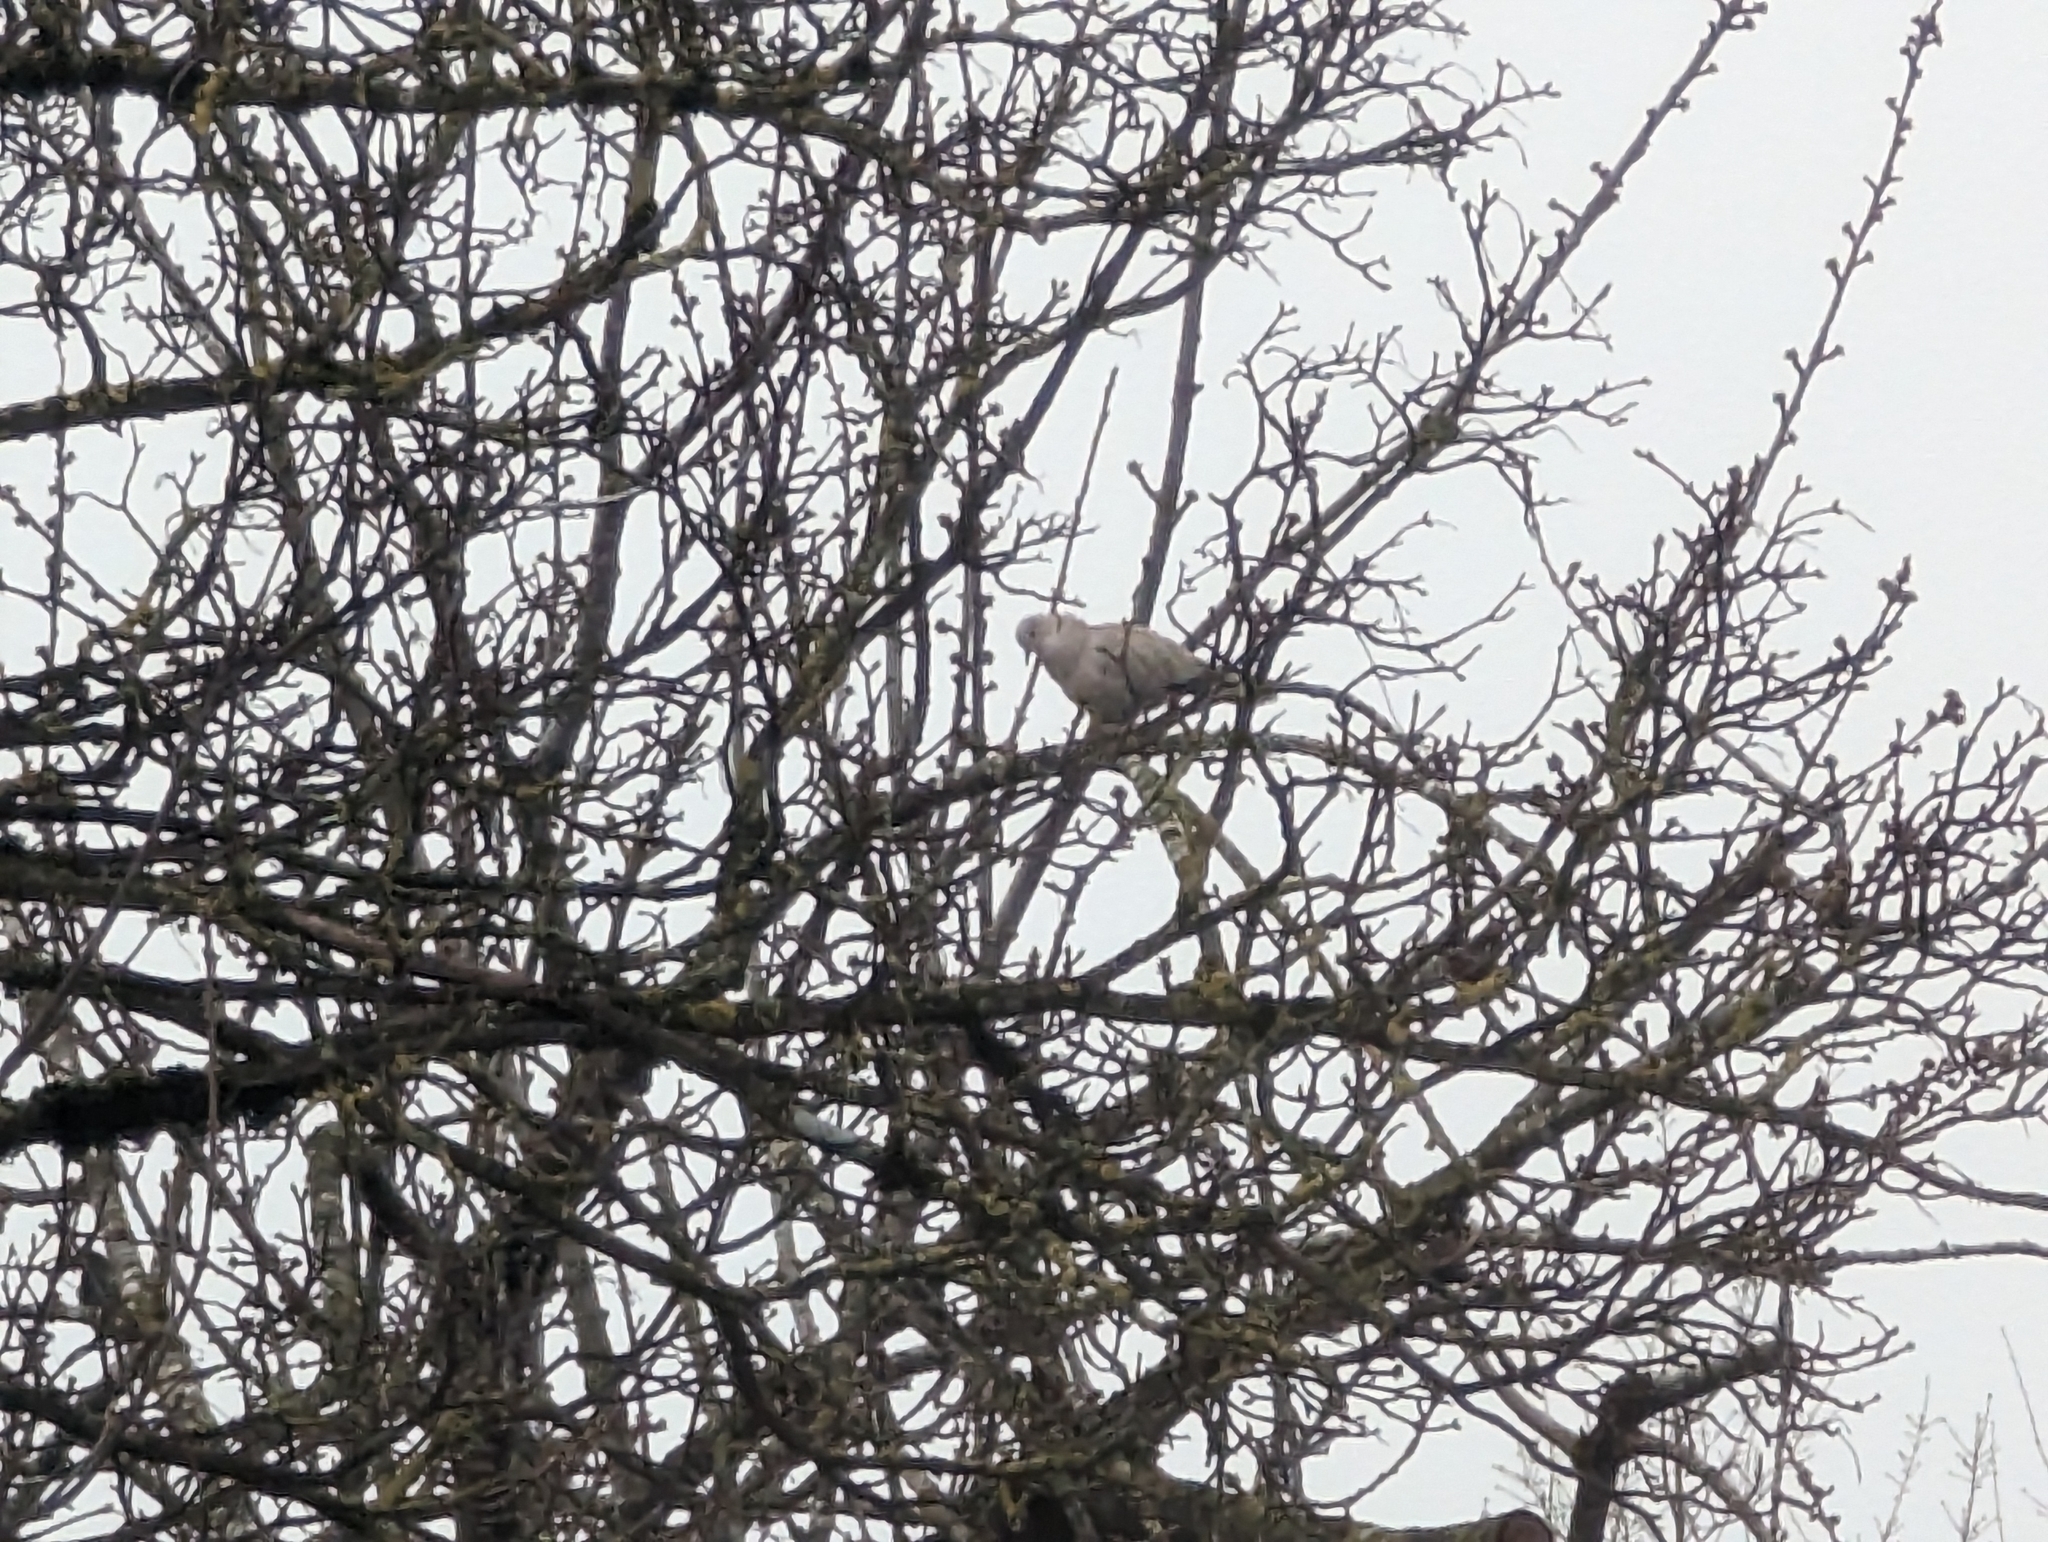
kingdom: Animalia
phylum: Chordata
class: Aves
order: Columbiformes
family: Columbidae
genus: Streptopelia
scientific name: Streptopelia decaocto
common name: Eurasian collared dove
